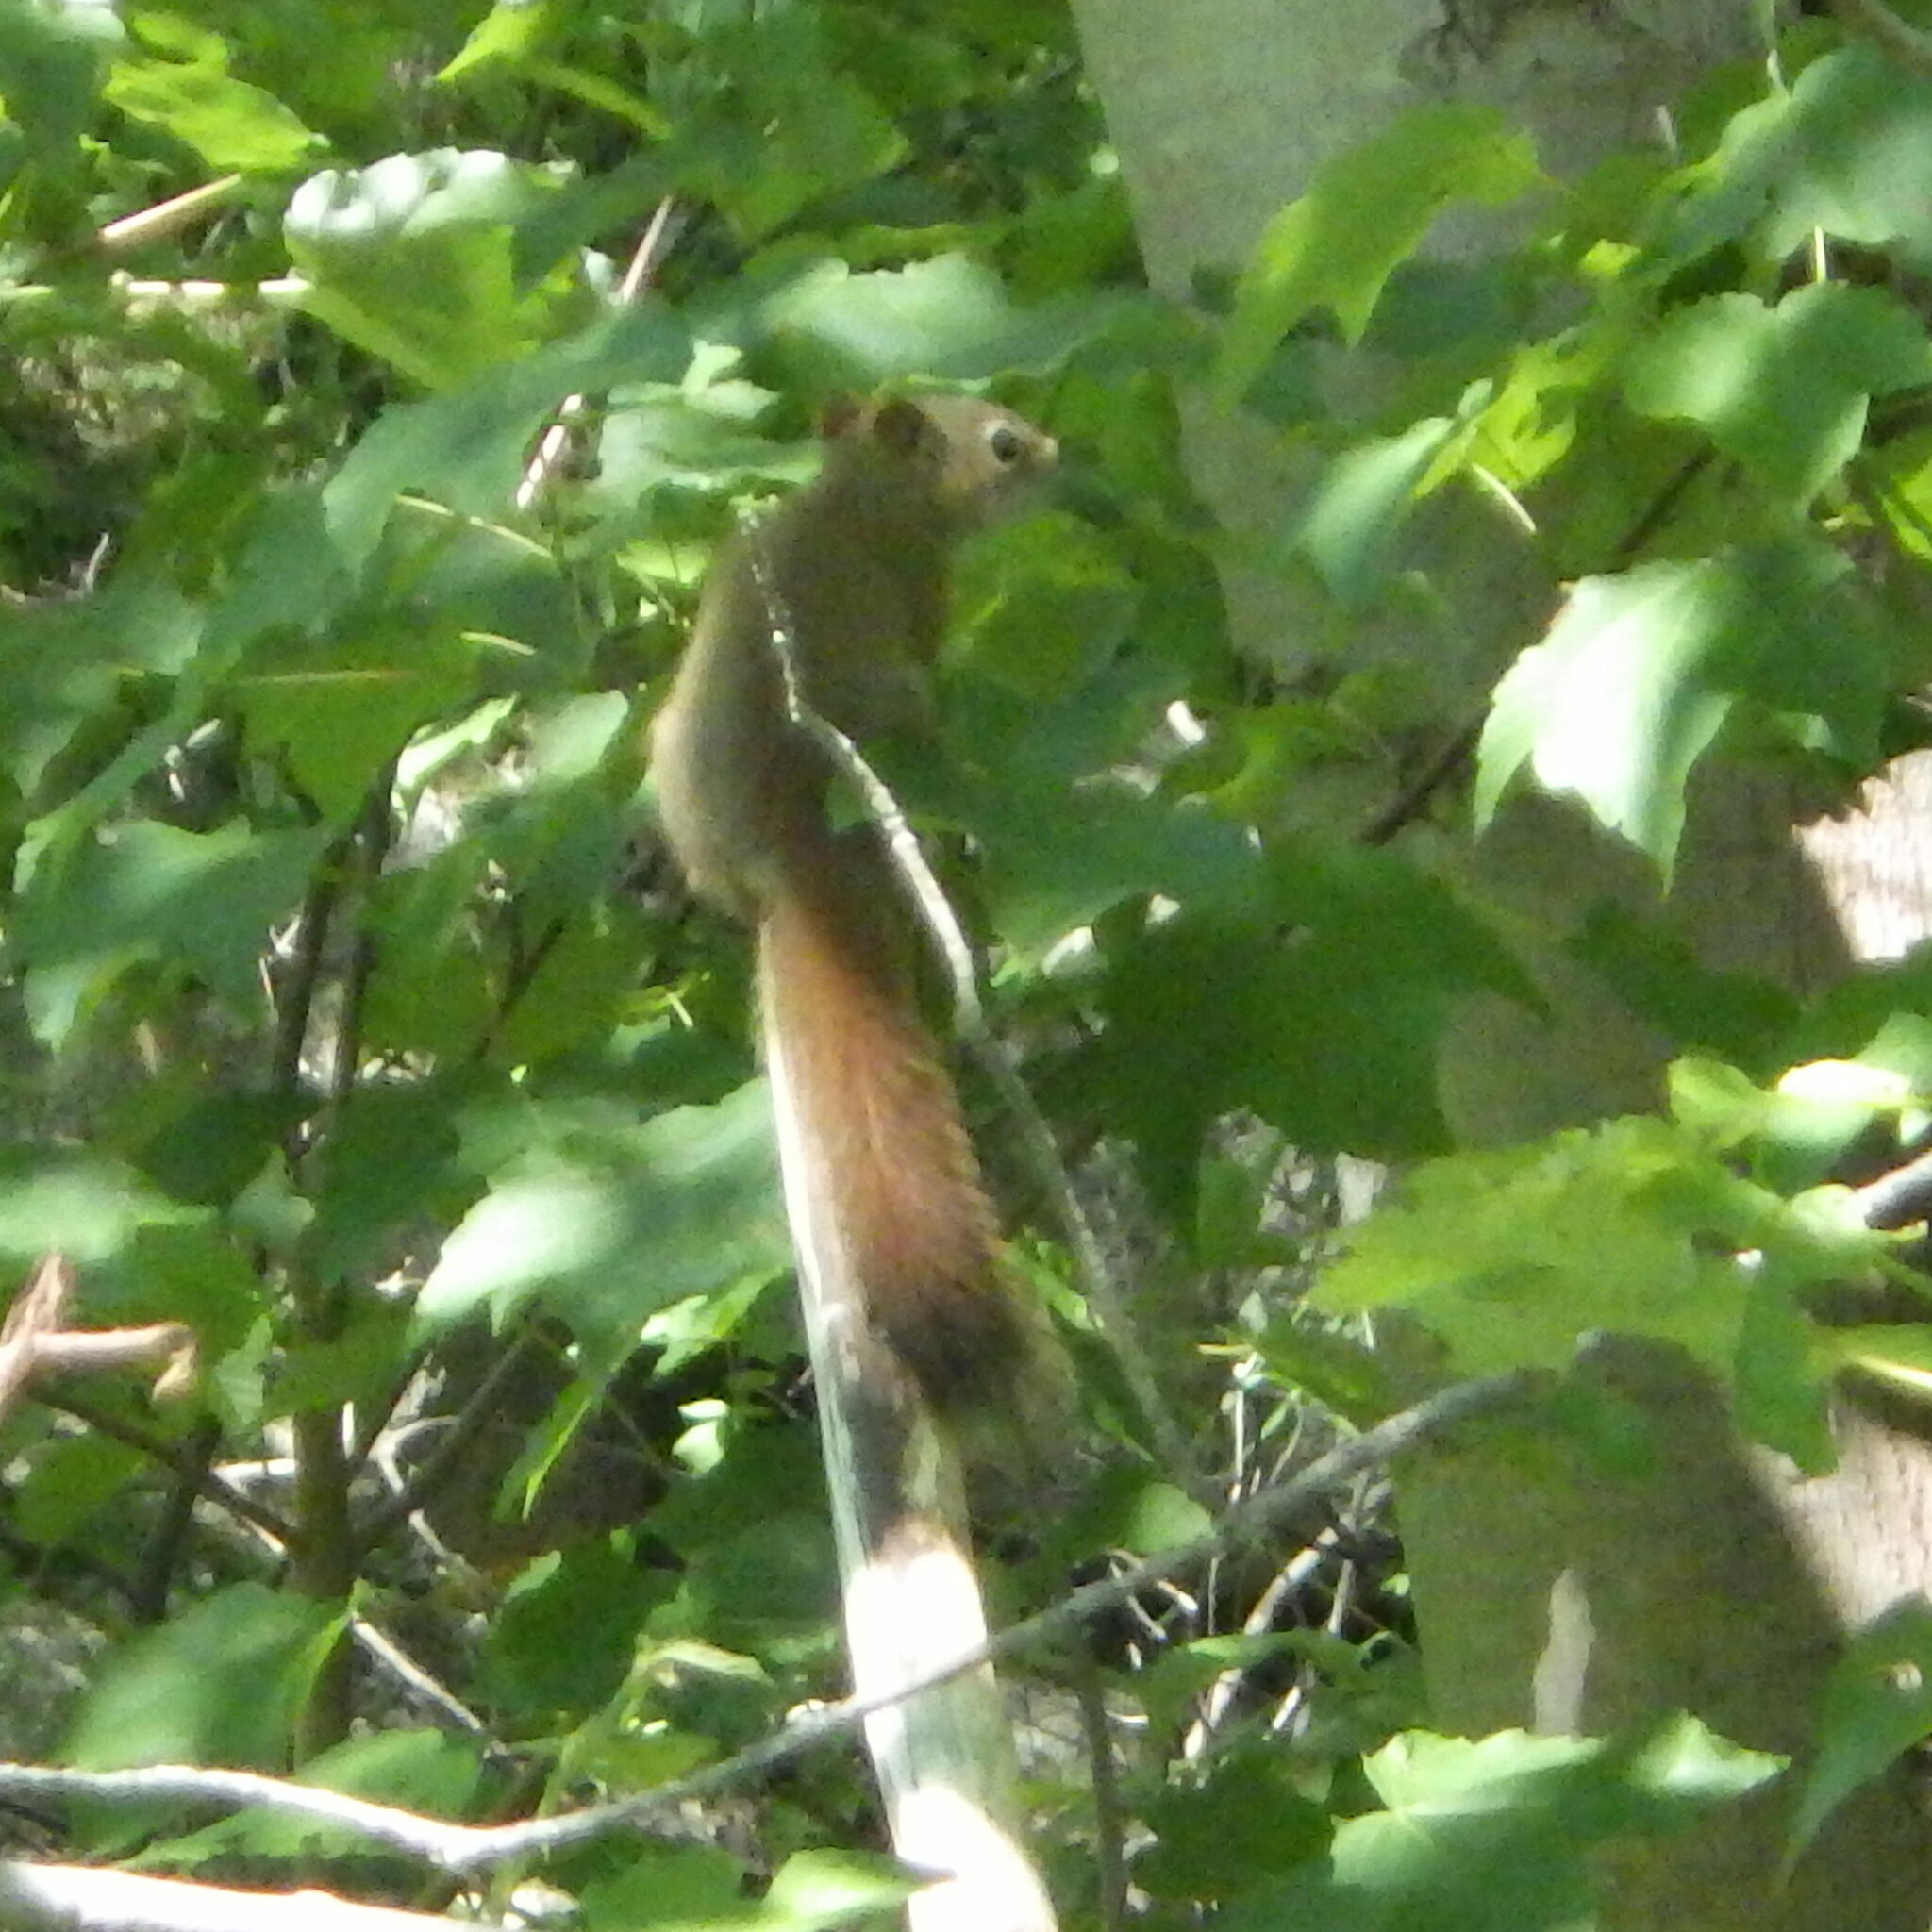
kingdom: Animalia
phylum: Chordata
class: Mammalia
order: Rodentia
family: Sciuridae
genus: Tamiasciurus
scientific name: Tamiasciurus hudsonicus
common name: Red squirrel
